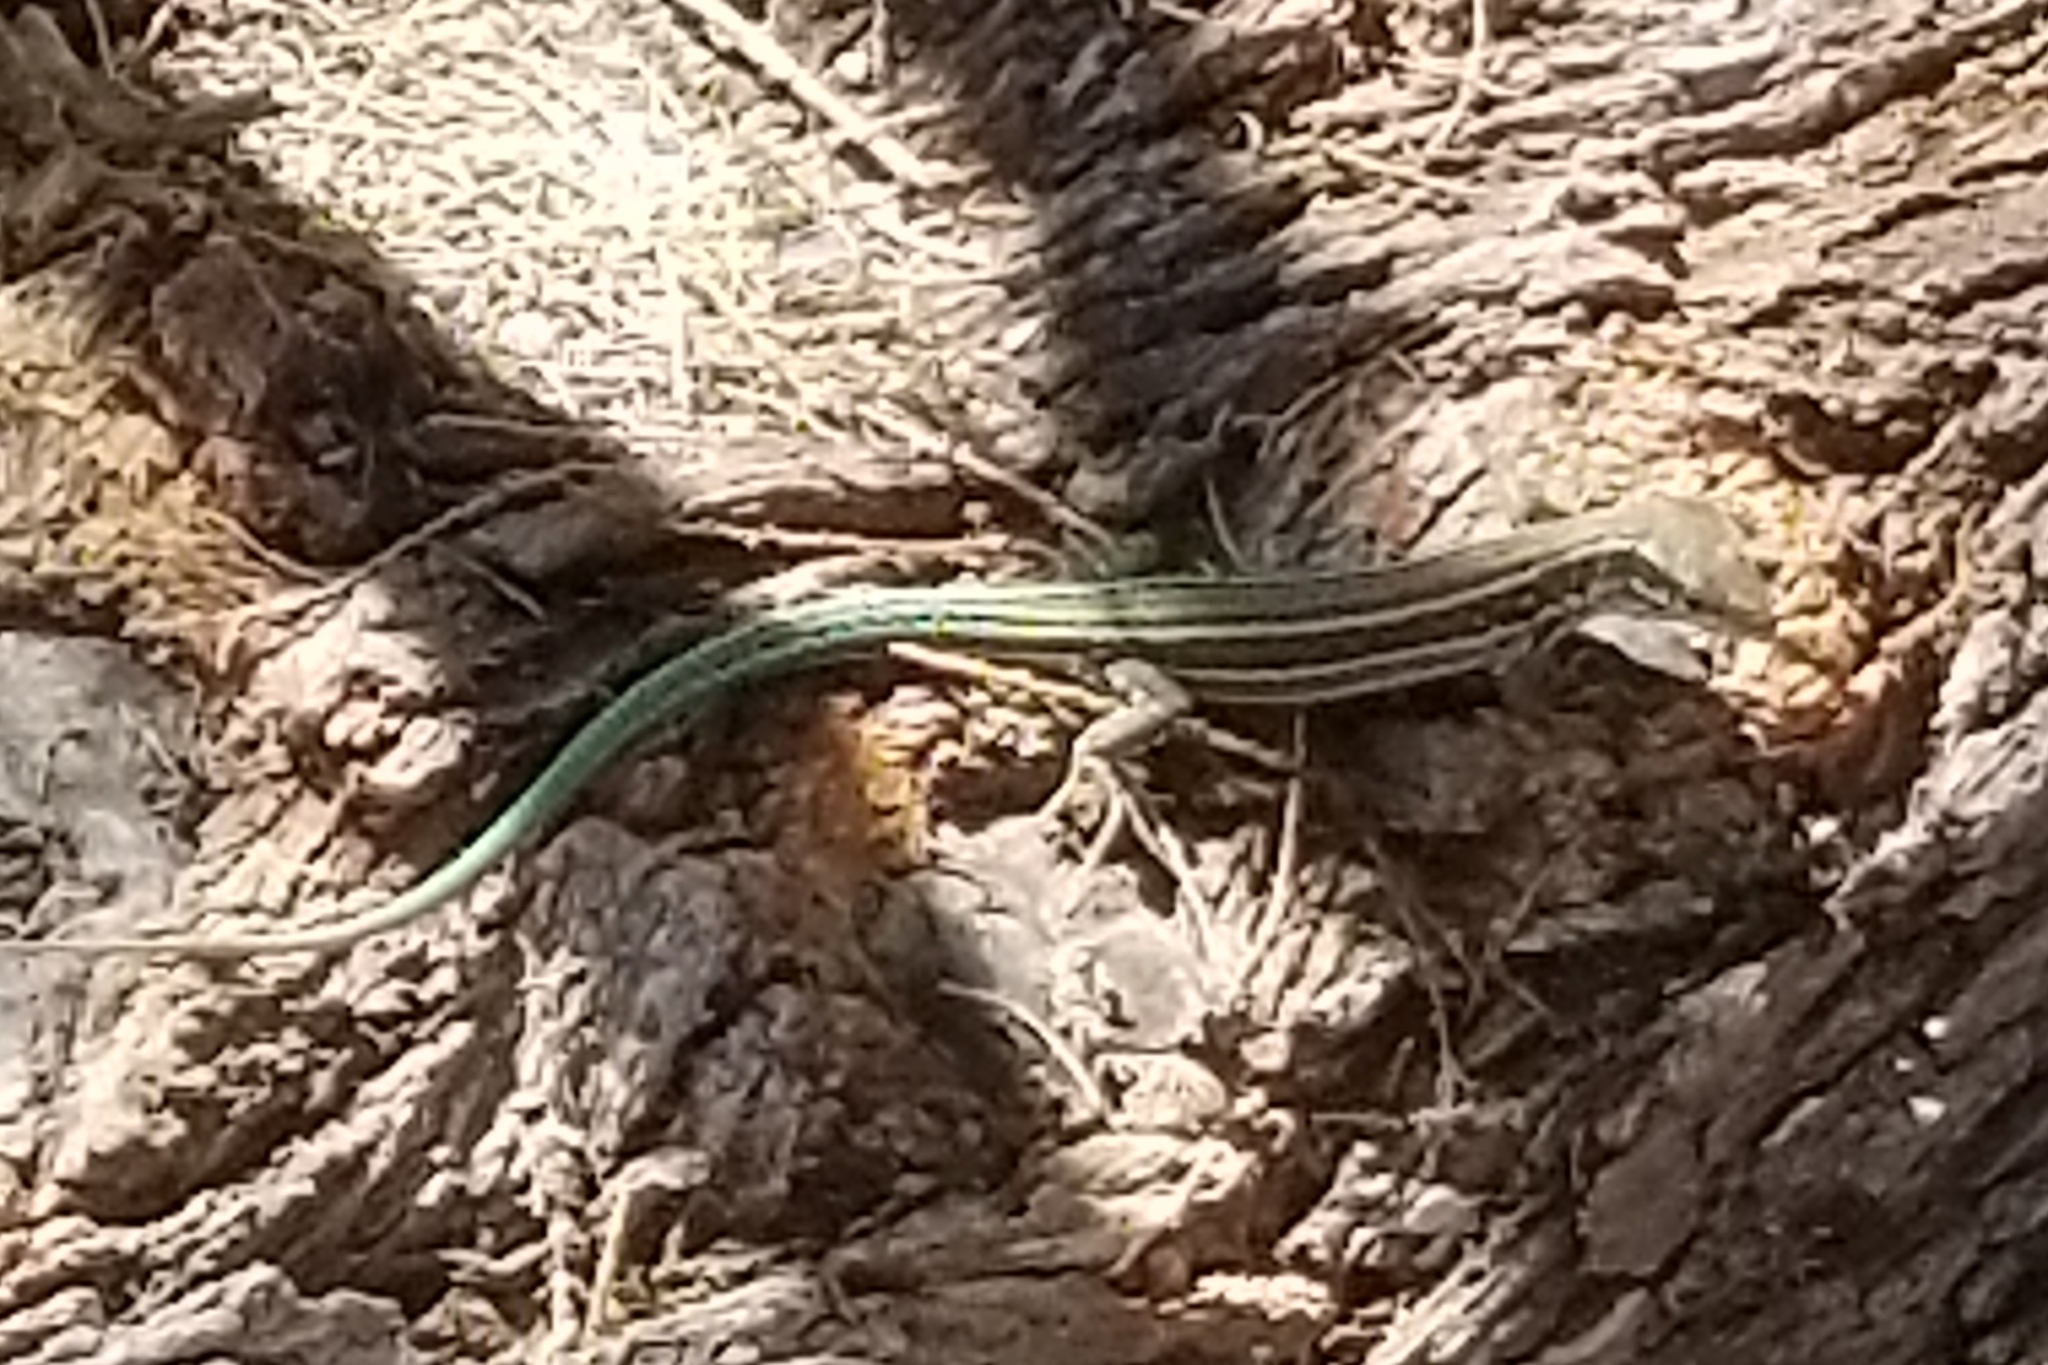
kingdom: Animalia
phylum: Chordata
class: Squamata
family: Lacertidae
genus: Podarcis
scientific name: Podarcis cretensis
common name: Cretan wall lizard
